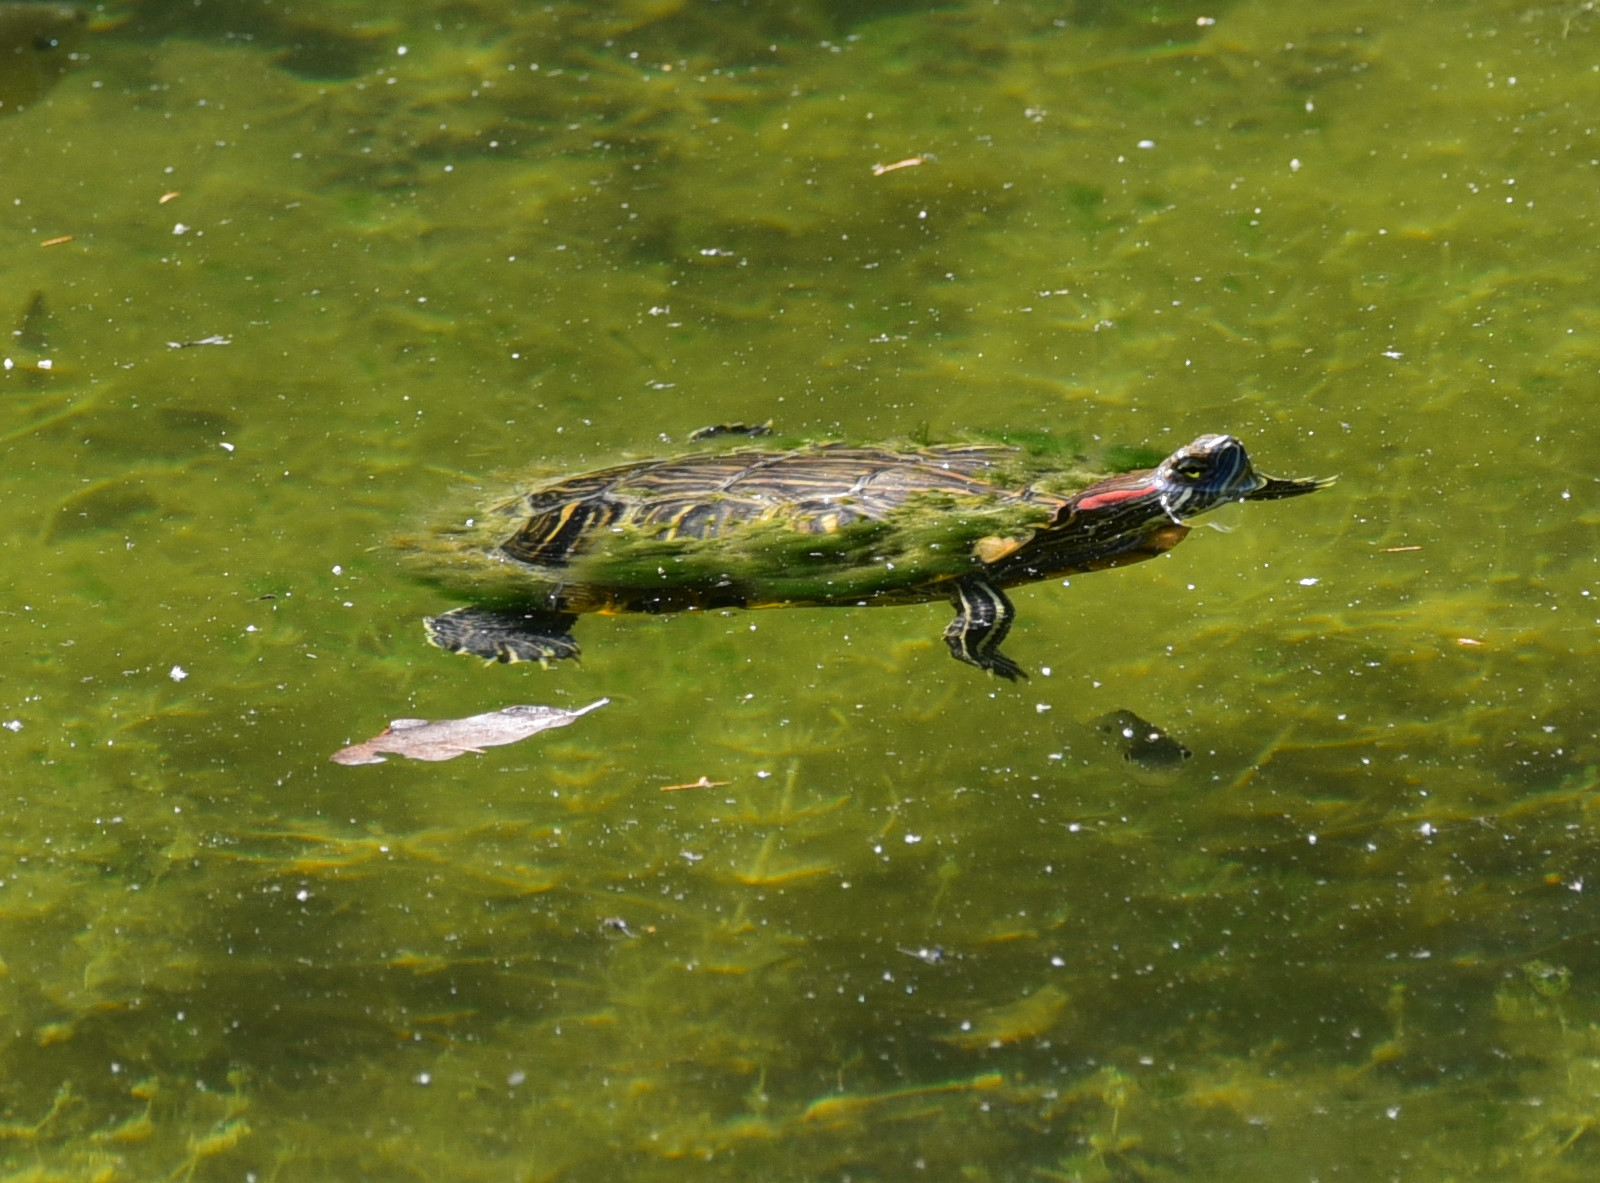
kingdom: Animalia
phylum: Chordata
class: Testudines
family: Emydidae
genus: Trachemys
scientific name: Trachemys scripta
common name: Slider
